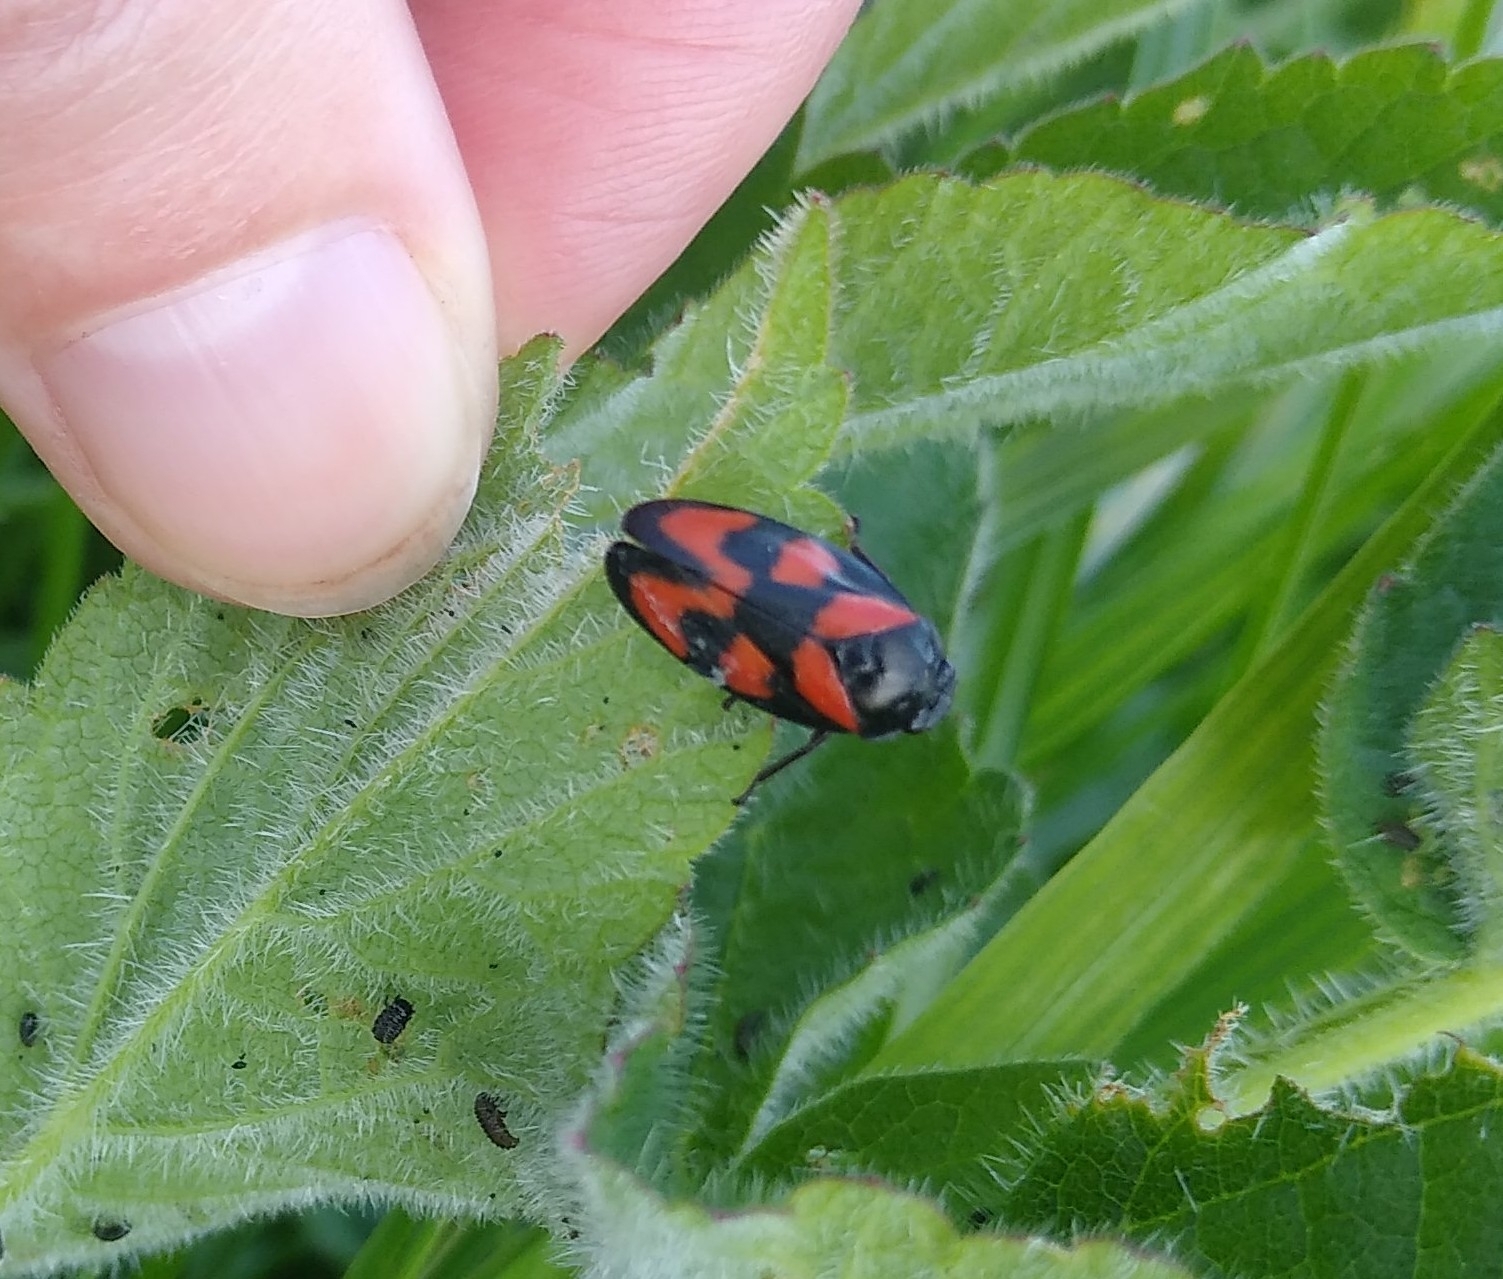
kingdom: Animalia
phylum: Arthropoda
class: Insecta
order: Hemiptera
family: Cercopidae
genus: Cercopis
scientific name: Cercopis vulnerata
